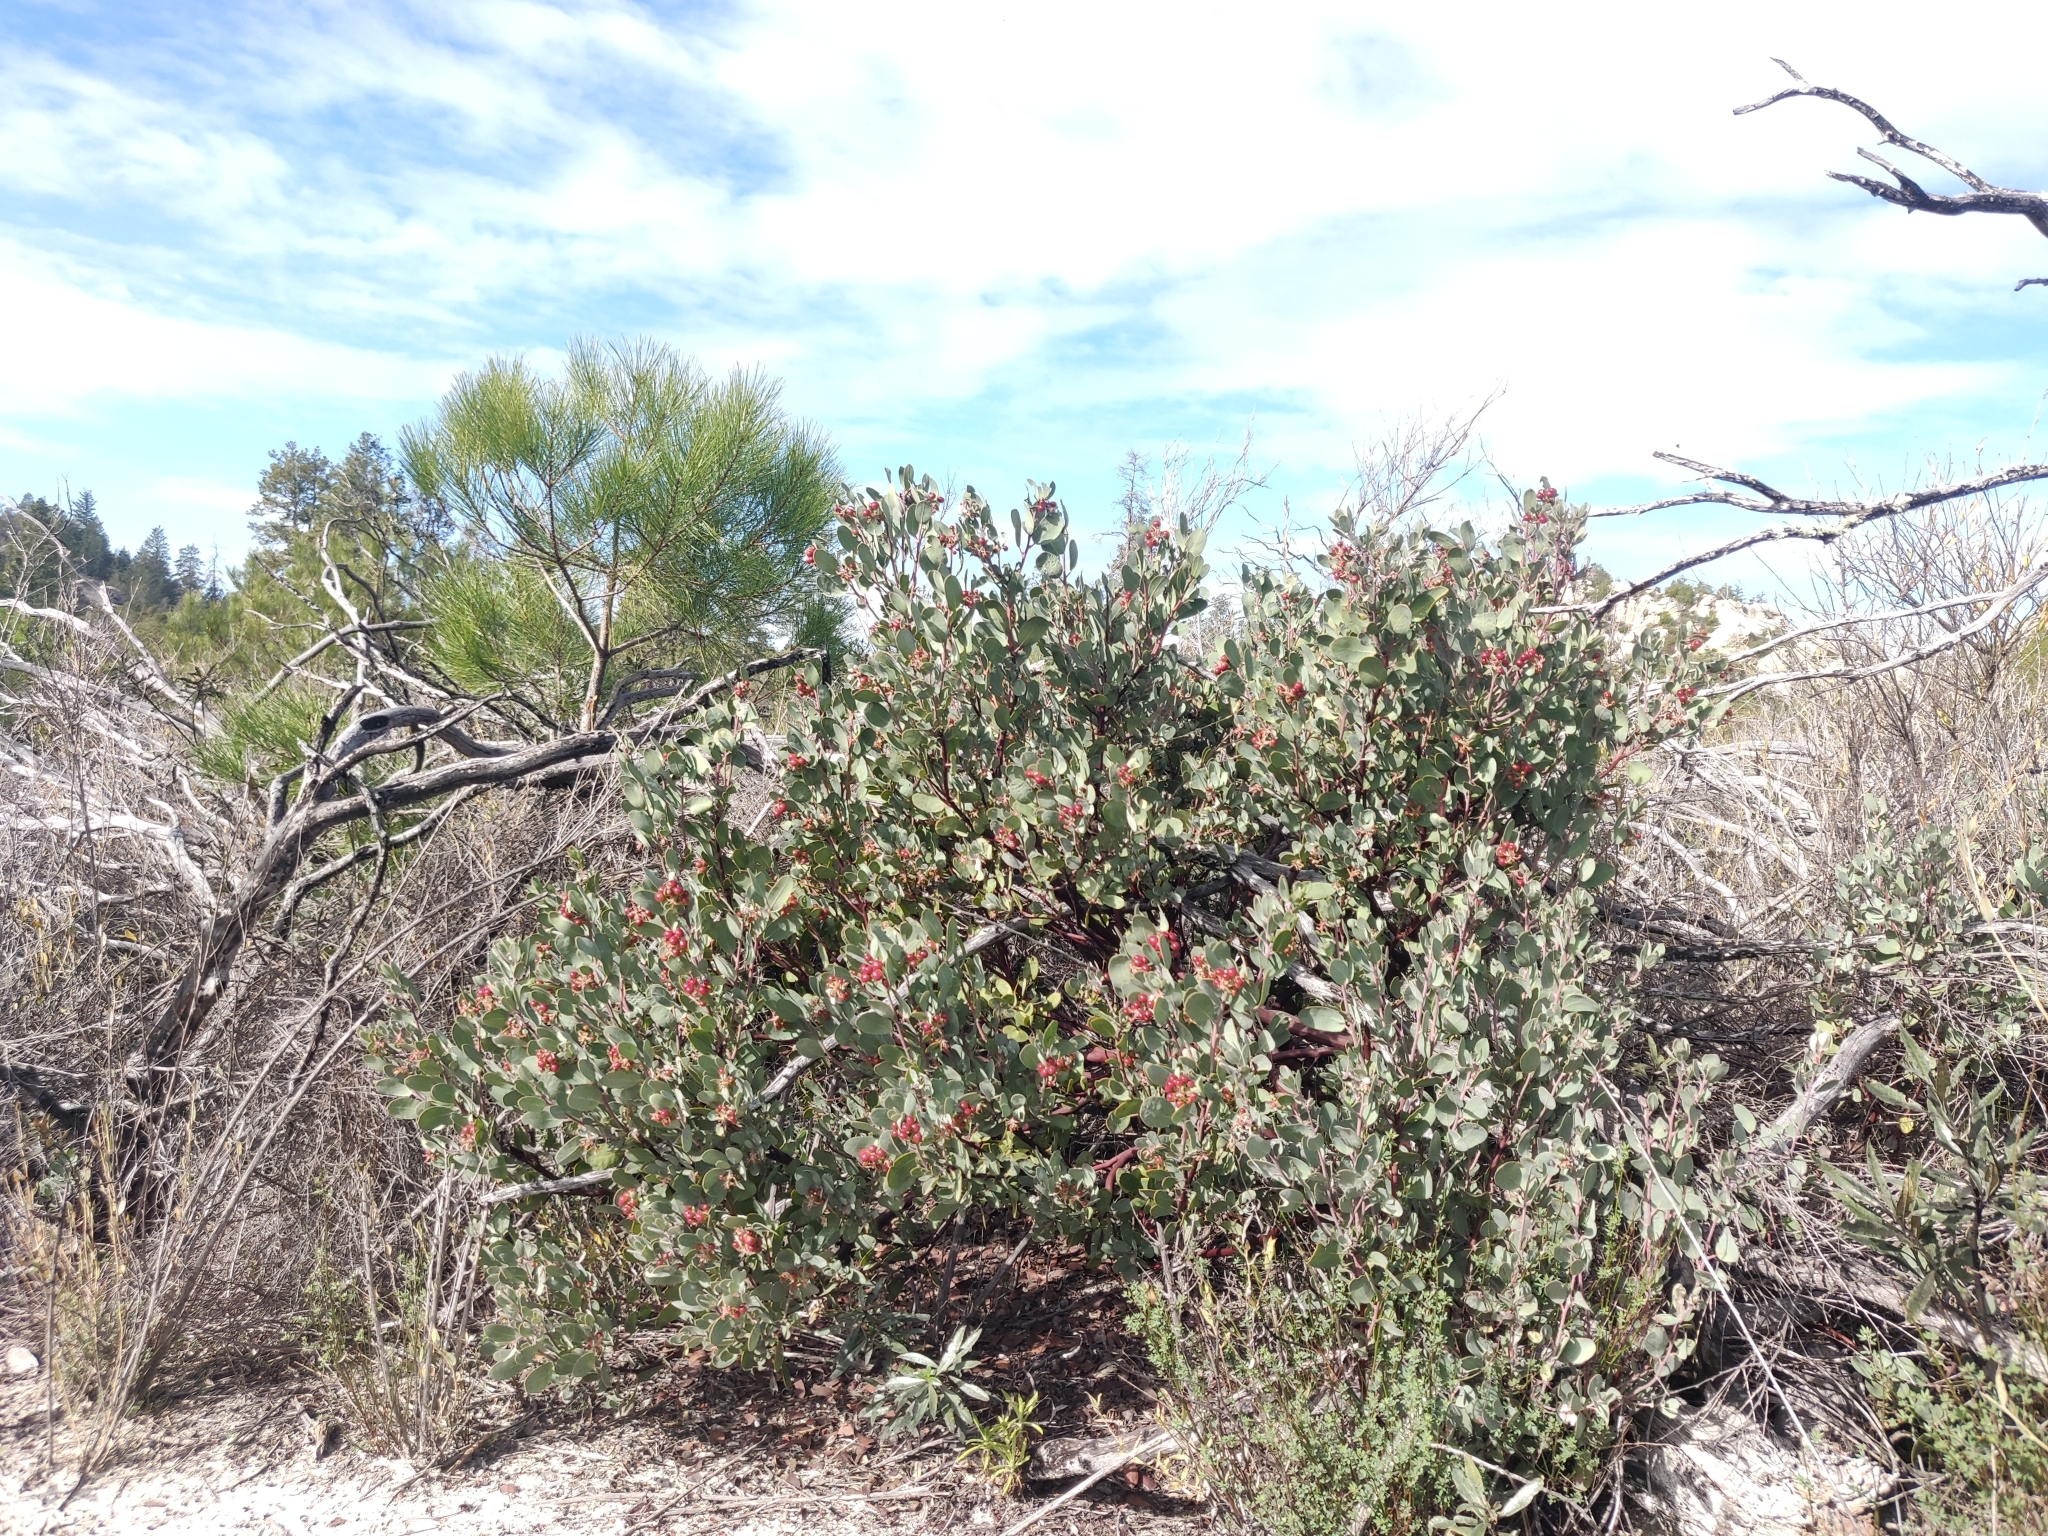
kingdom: Plantae
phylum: Tracheophyta
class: Magnoliopsida
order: Ericales
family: Ericaceae
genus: Arctostaphylos
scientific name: Arctostaphylos silvicola
